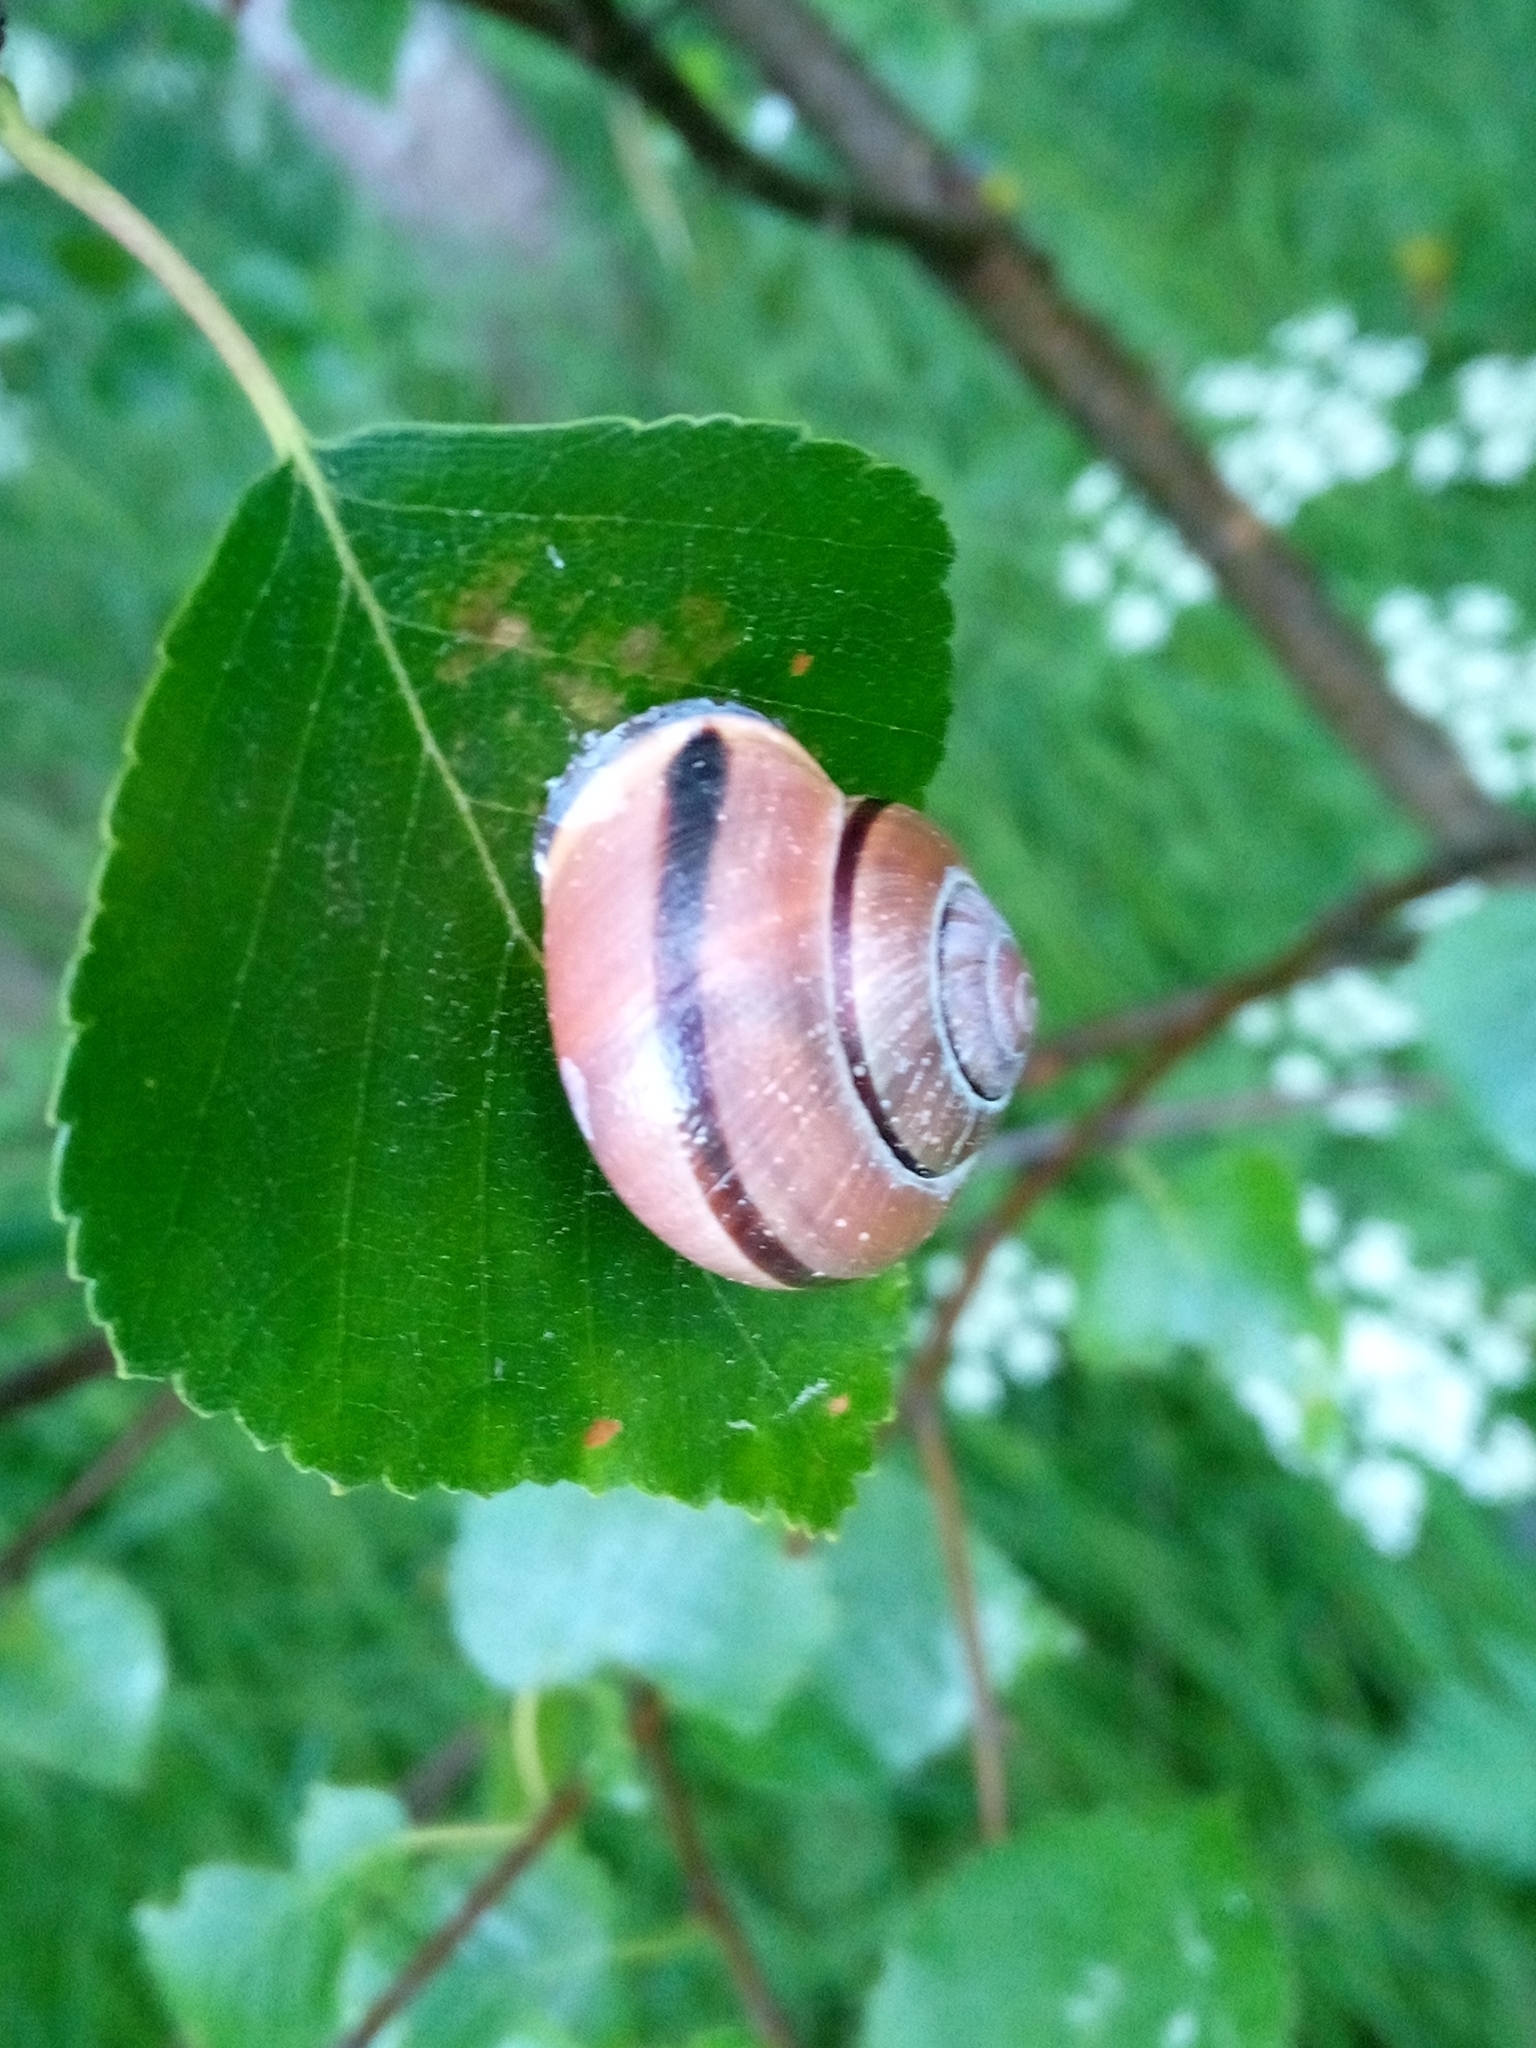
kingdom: Animalia
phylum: Mollusca
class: Gastropoda
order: Stylommatophora
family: Helicidae
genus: Cepaea
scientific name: Cepaea nemoralis
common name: Grovesnail
